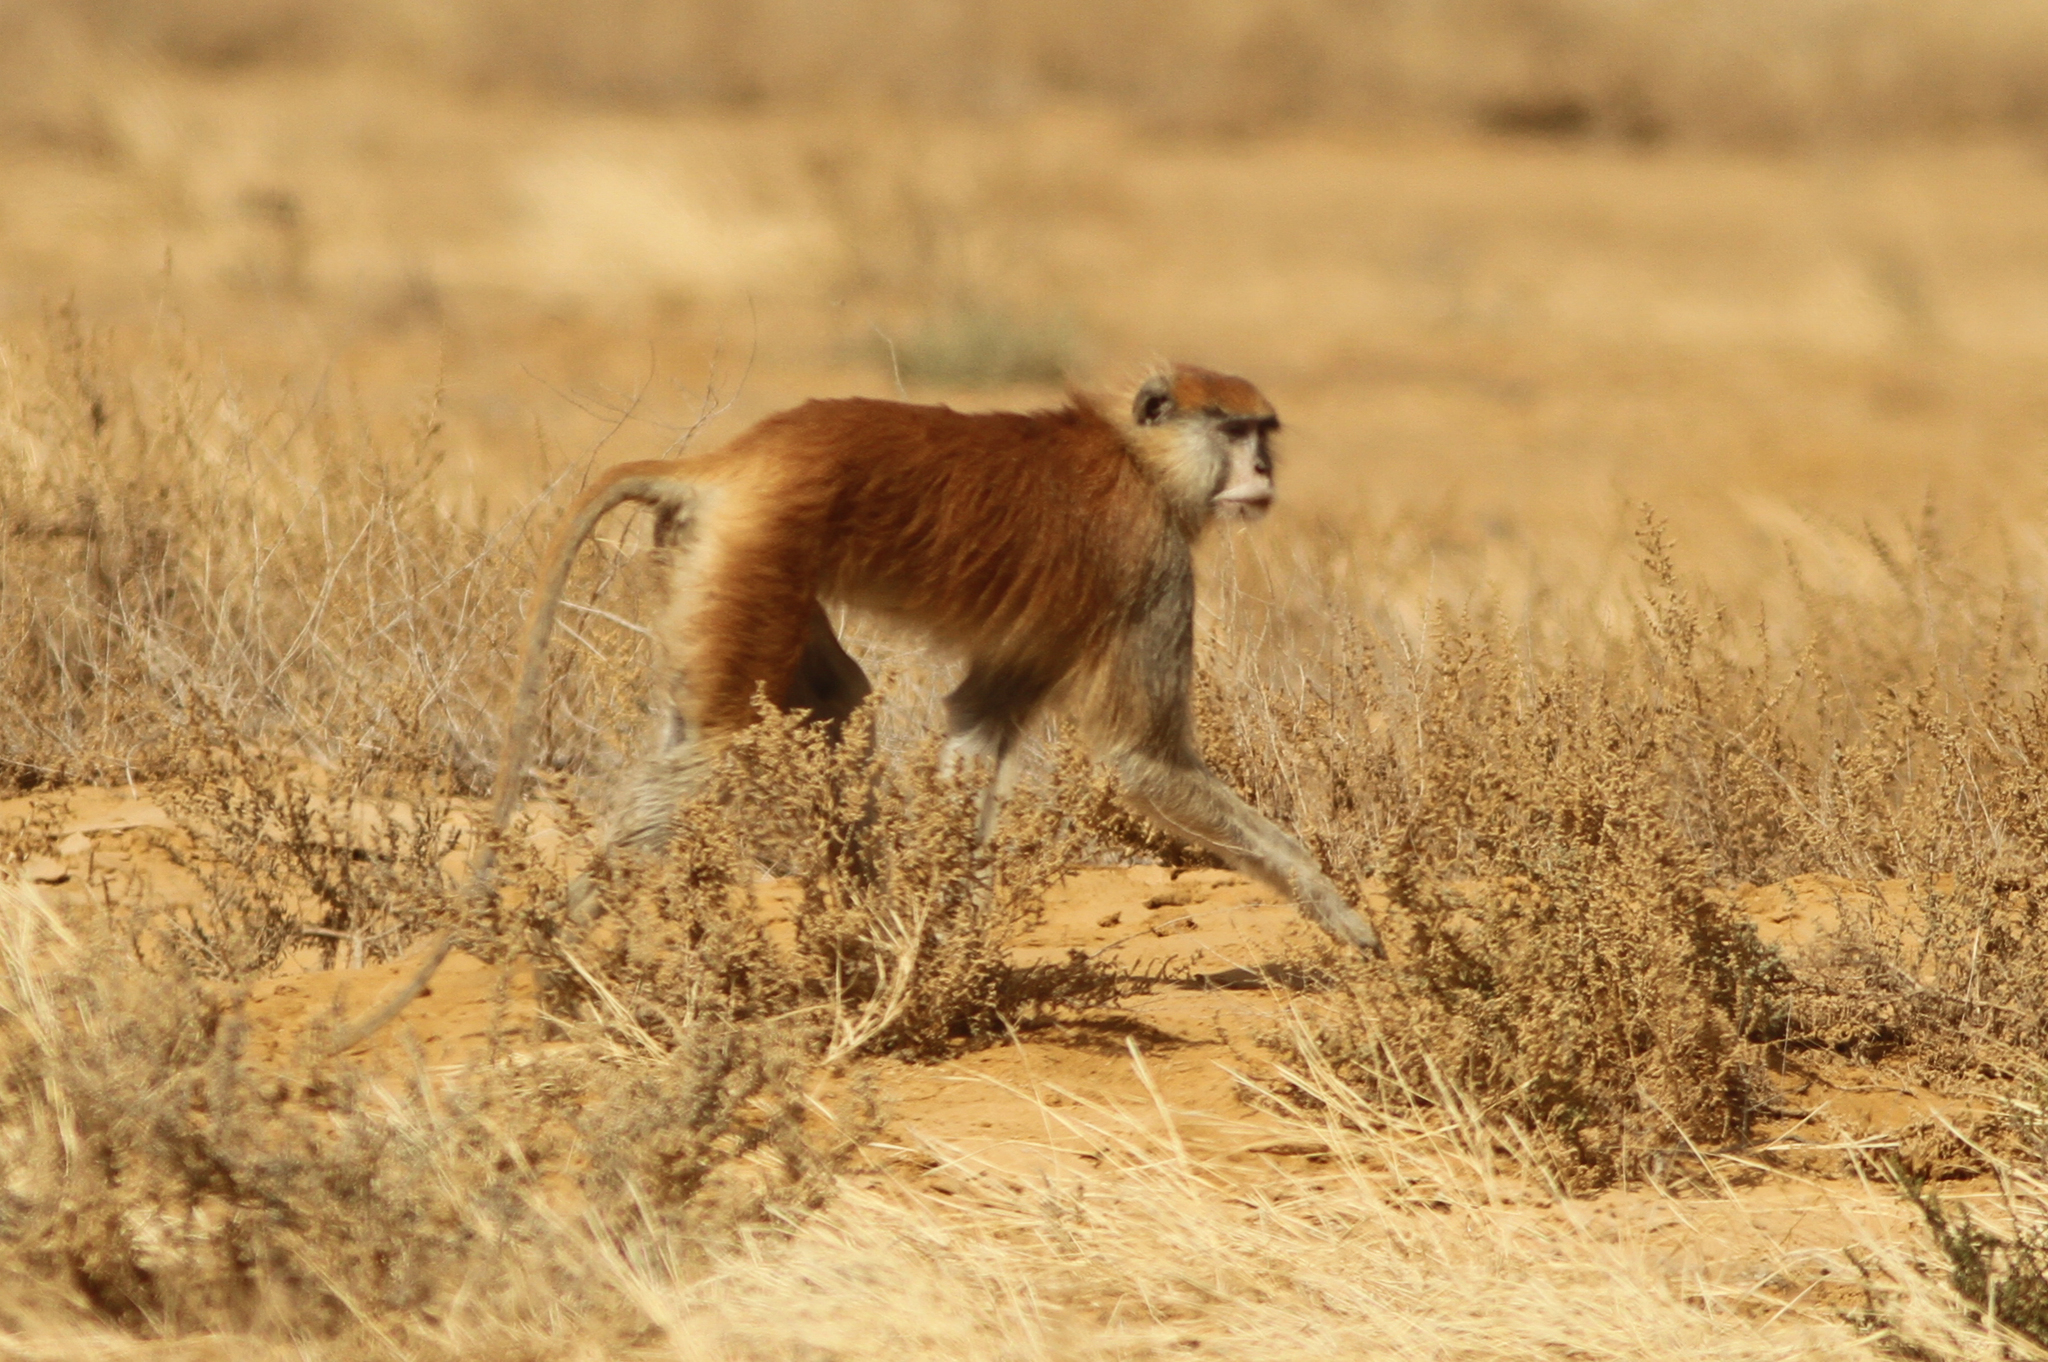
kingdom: Animalia
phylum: Chordata
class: Mammalia
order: Primates
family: Cercopithecidae
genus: Erythrocebus
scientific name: Erythrocebus patas
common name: Patas monkey
